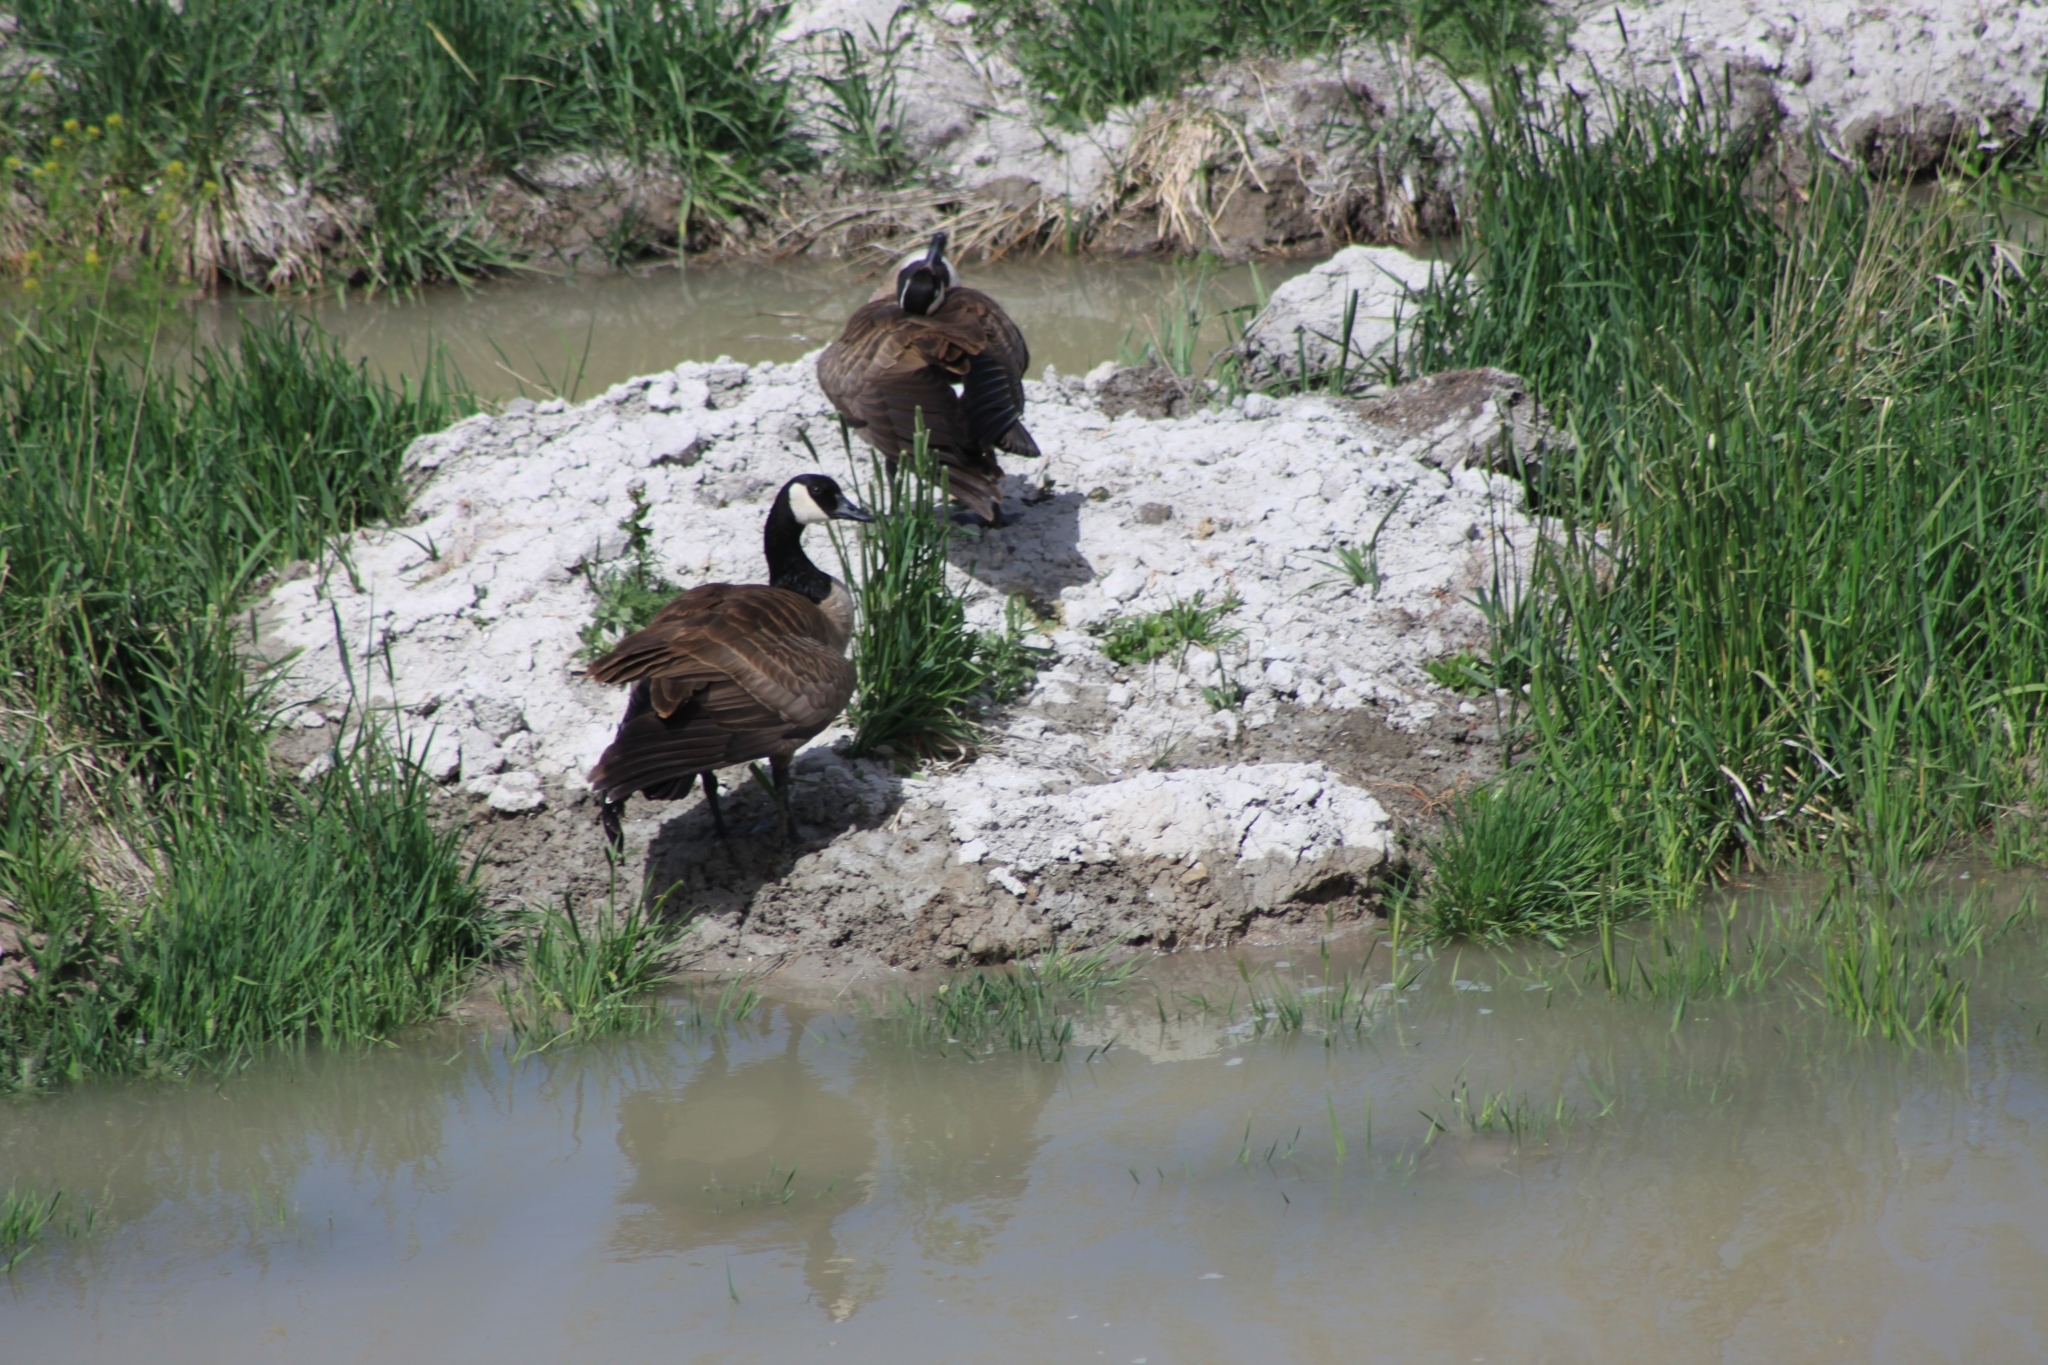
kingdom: Animalia
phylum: Chordata
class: Aves
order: Anseriformes
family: Anatidae
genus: Branta
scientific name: Branta canadensis
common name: Canada goose
